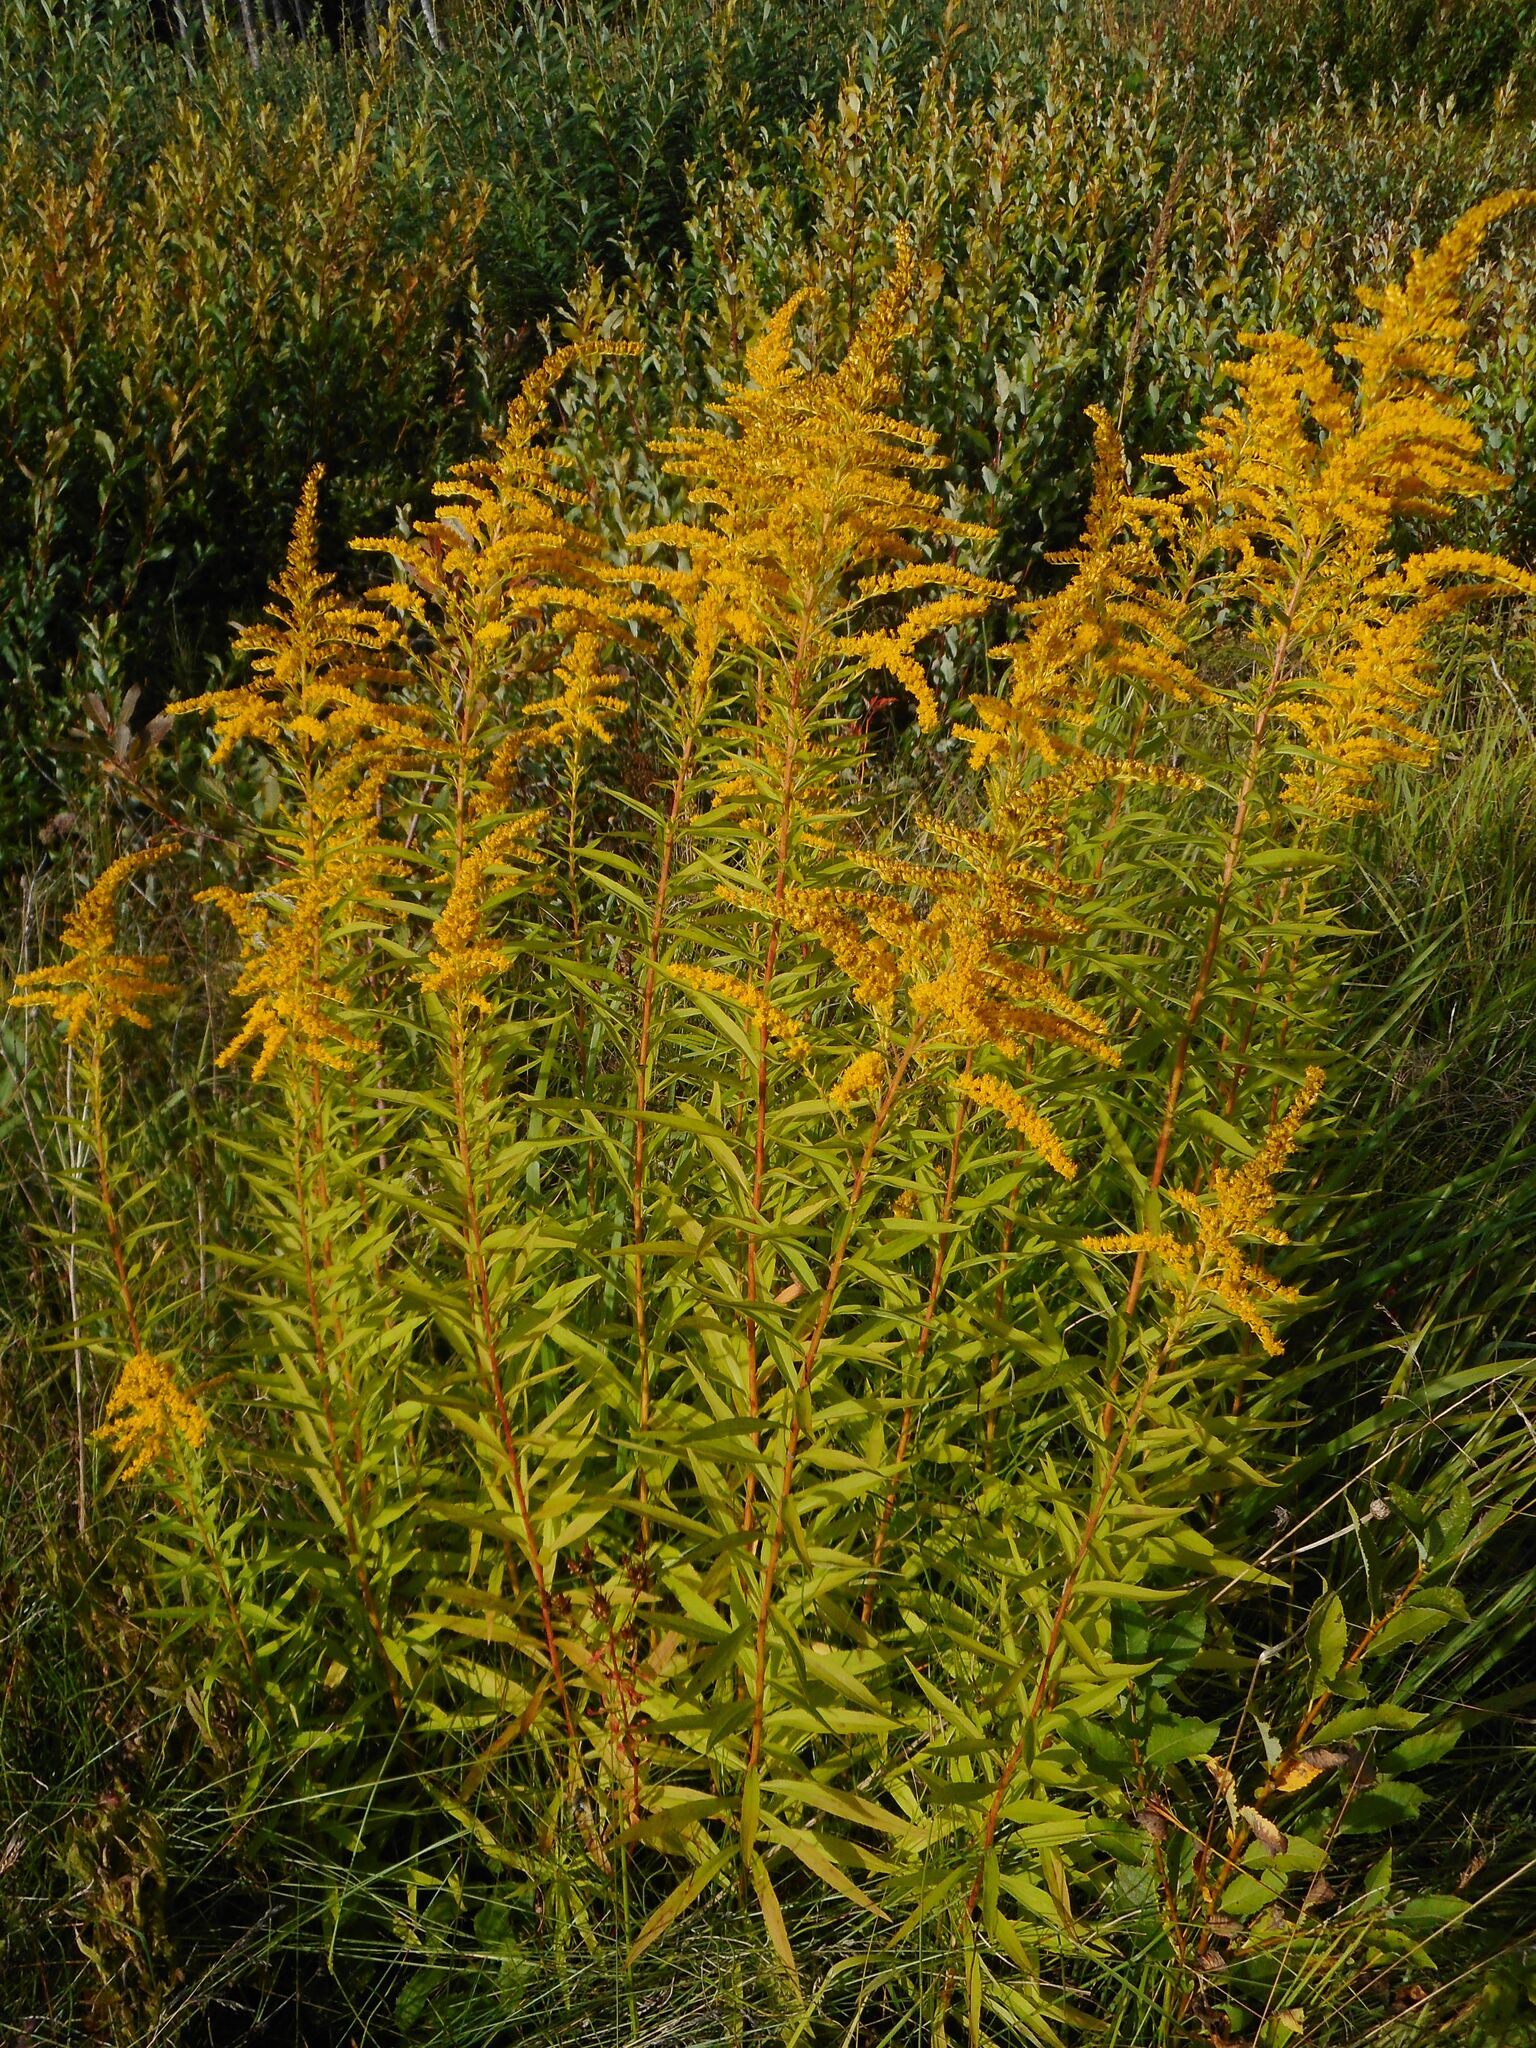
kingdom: Plantae
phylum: Tracheophyta
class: Magnoliopsida
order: Asterales
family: Asteraceae
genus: Solidago
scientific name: Solidago canadensis
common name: Canada goldenrod
